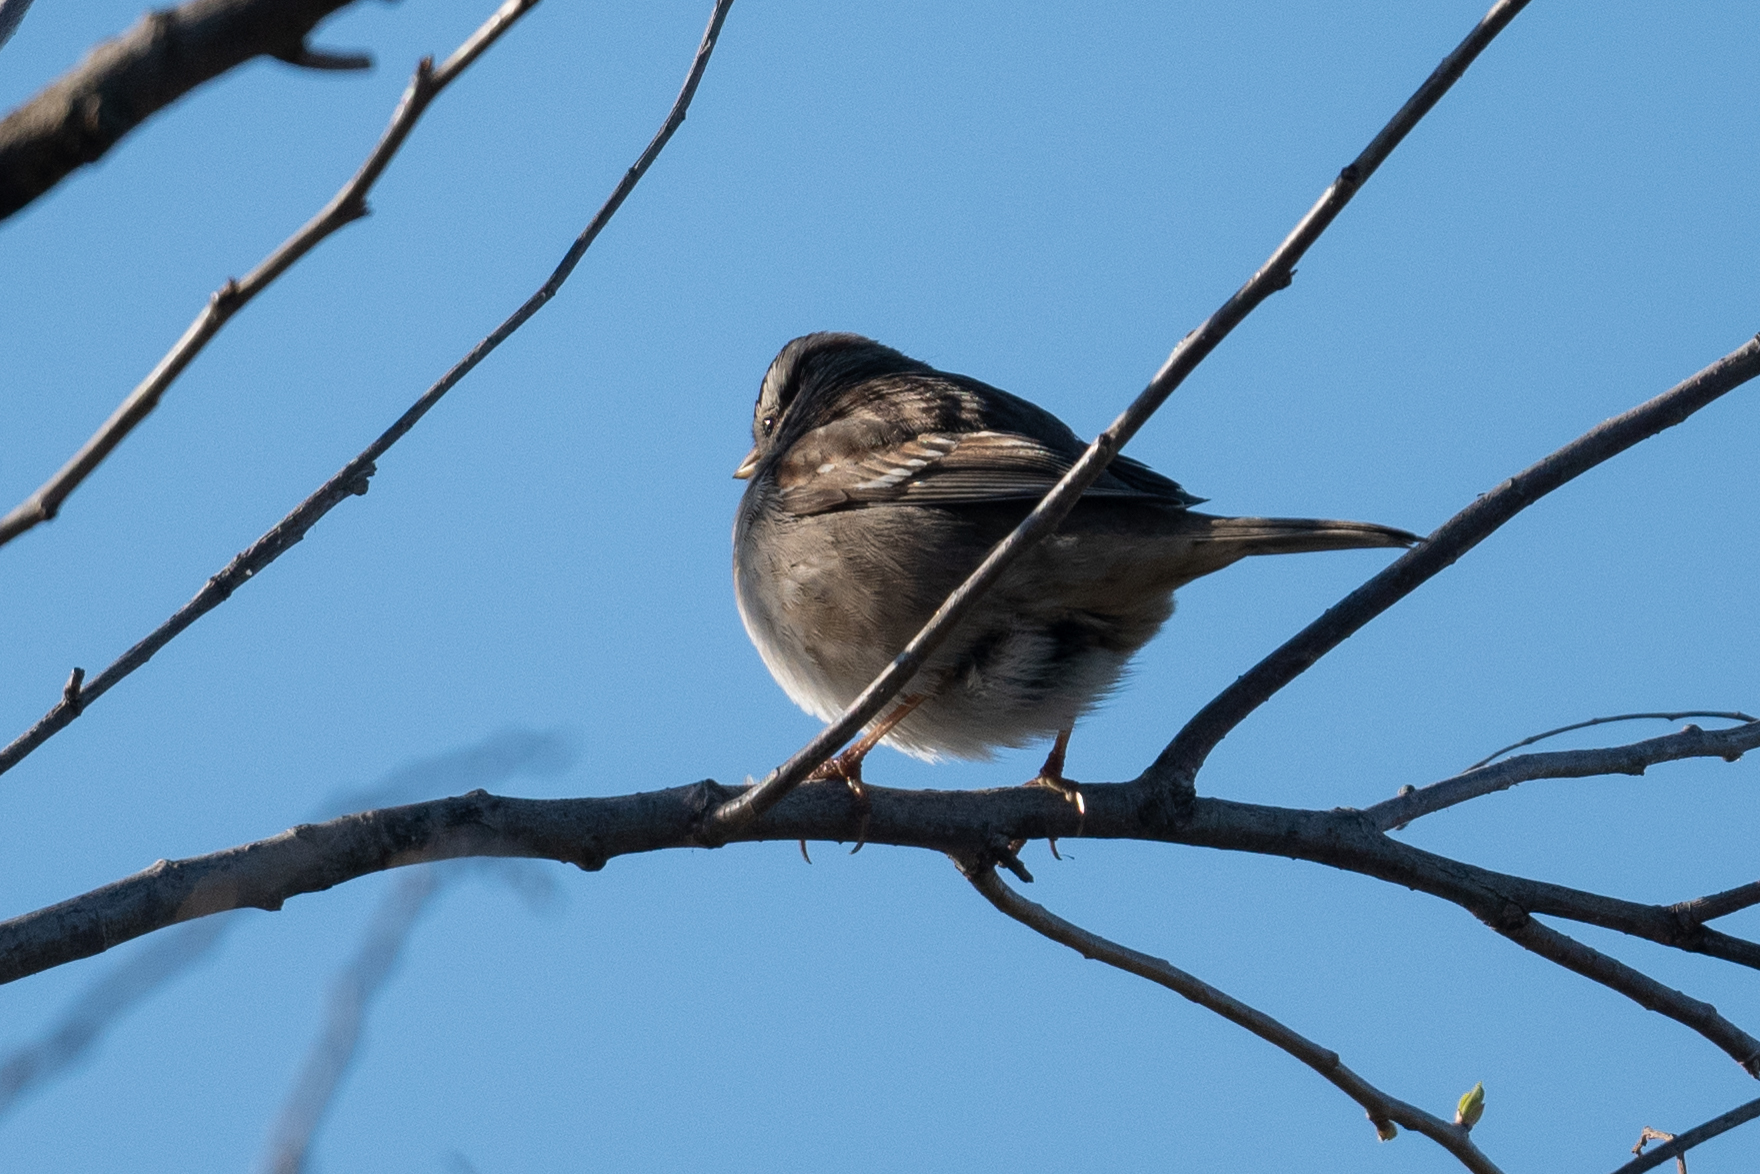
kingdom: Animalia
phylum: Chordata
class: Aves
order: Passeriformes
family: Passerellidae
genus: Zonotrichia
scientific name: Zonotrichia leucophrys
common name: White-crowned sparrow
